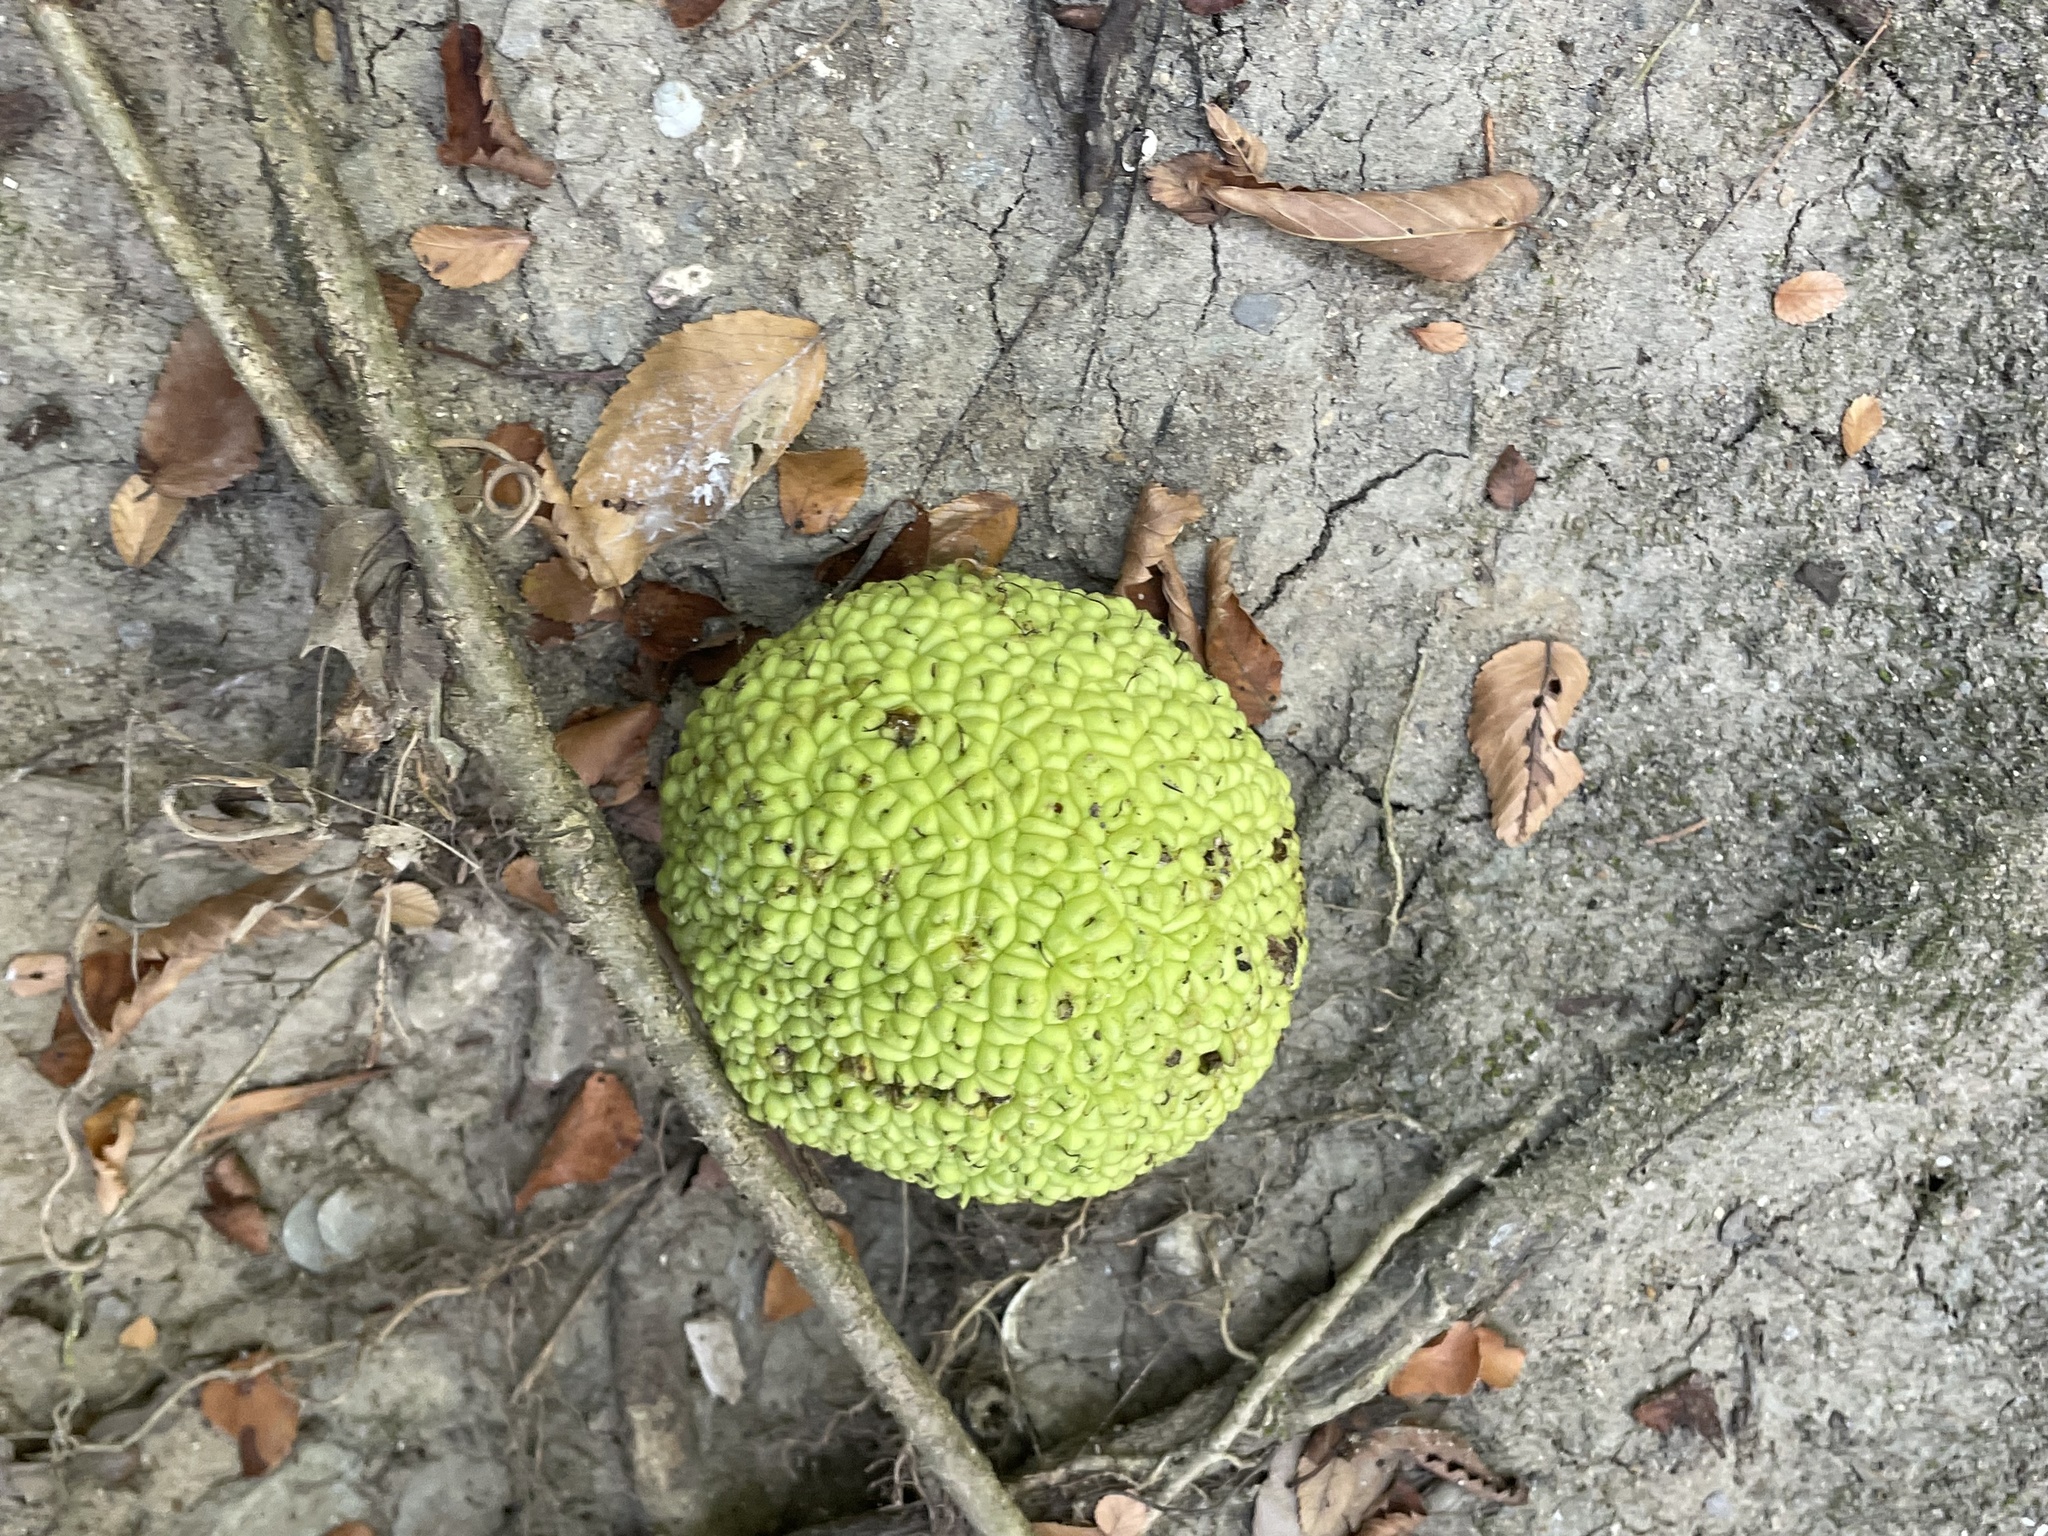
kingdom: Plantae
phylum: Tracheophyta
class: Magnoliopsida
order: Rosales
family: Moraceae
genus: Maclura
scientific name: Maclura pomifera
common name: Osage-orange
